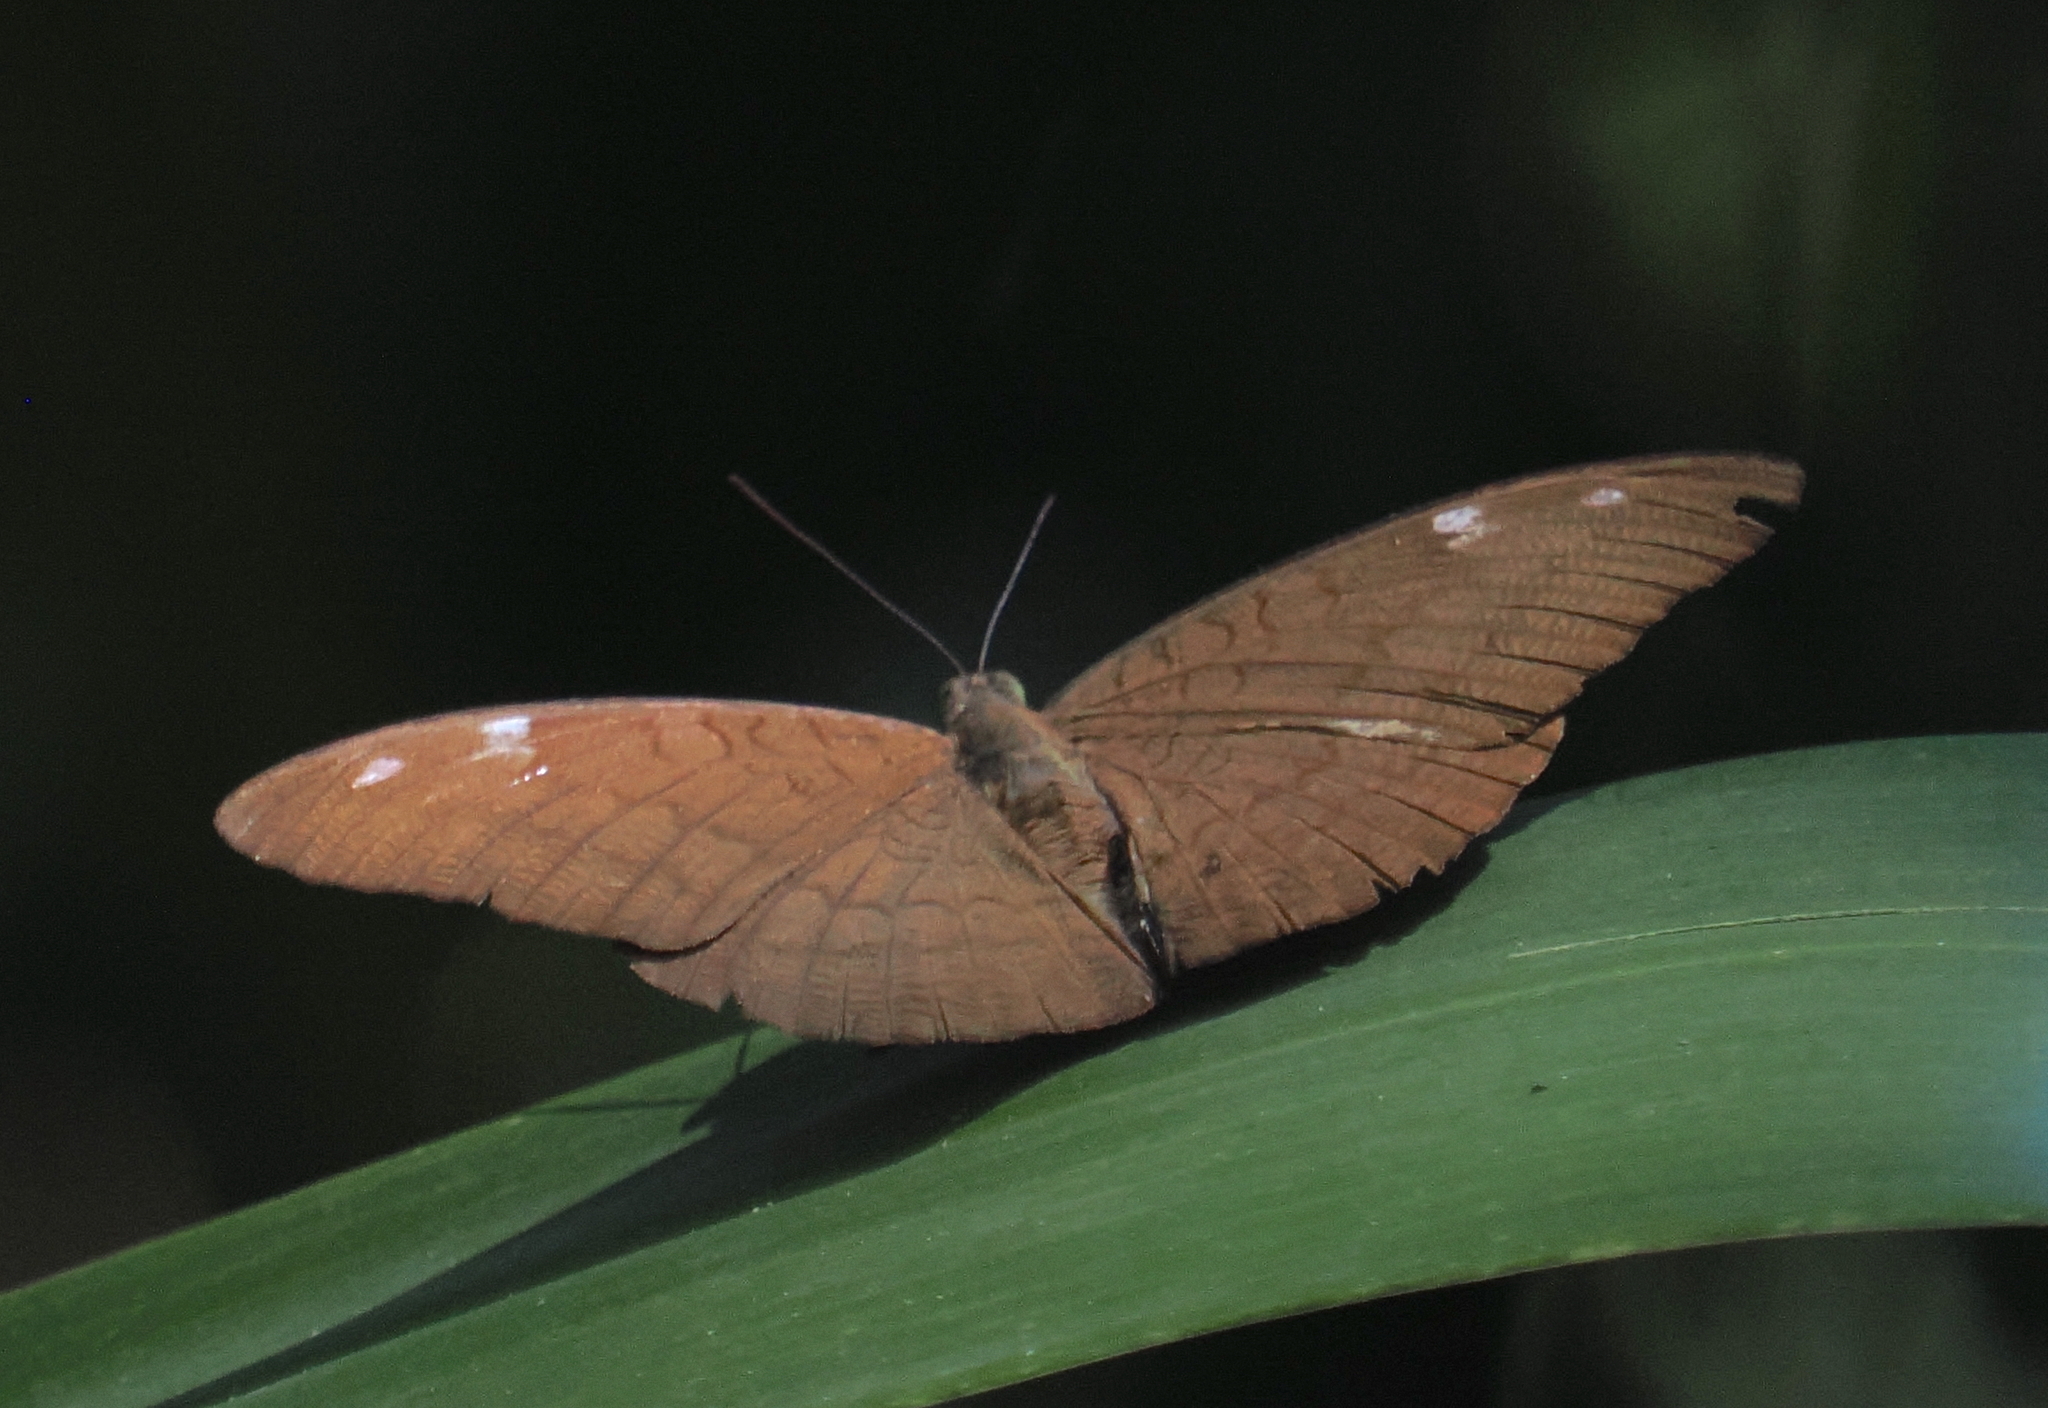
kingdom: Animalia
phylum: Arthropoda
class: Insecta
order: Lepidoptera
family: Nymphalidae
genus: Euthalia
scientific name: Euthalia aconthea
